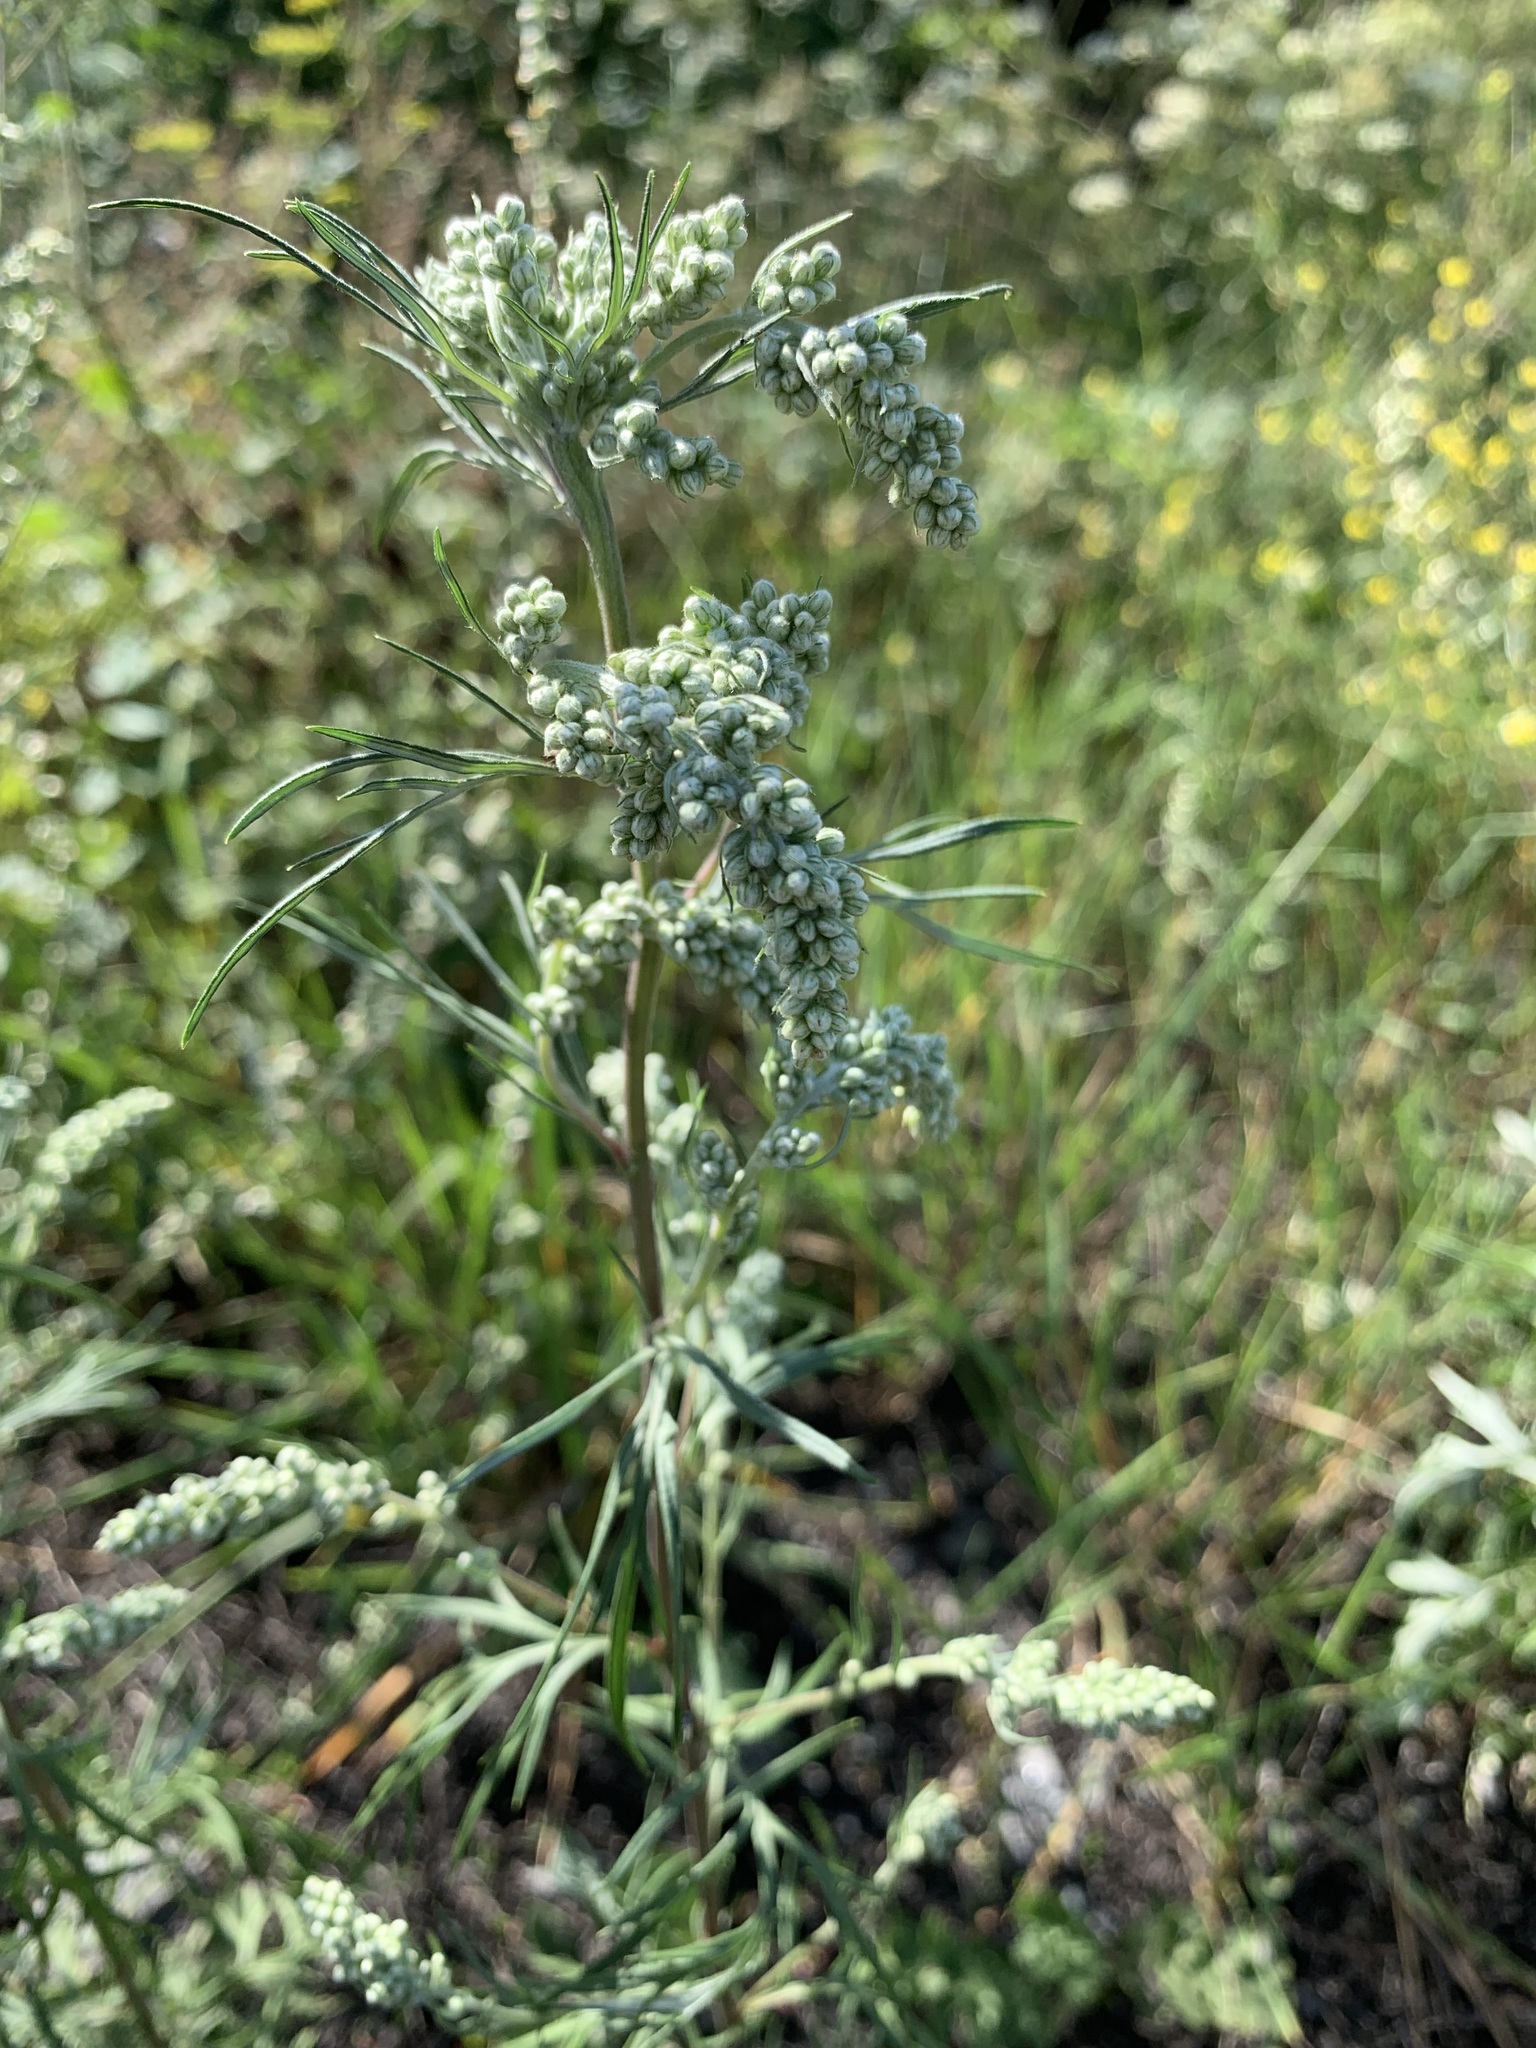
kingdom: Plantae
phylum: Tracheophyta
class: Magnoliopsida
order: Asterales
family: Asteraceae
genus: Artemisia
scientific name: Artemisia vulgaris
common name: Mugwort
